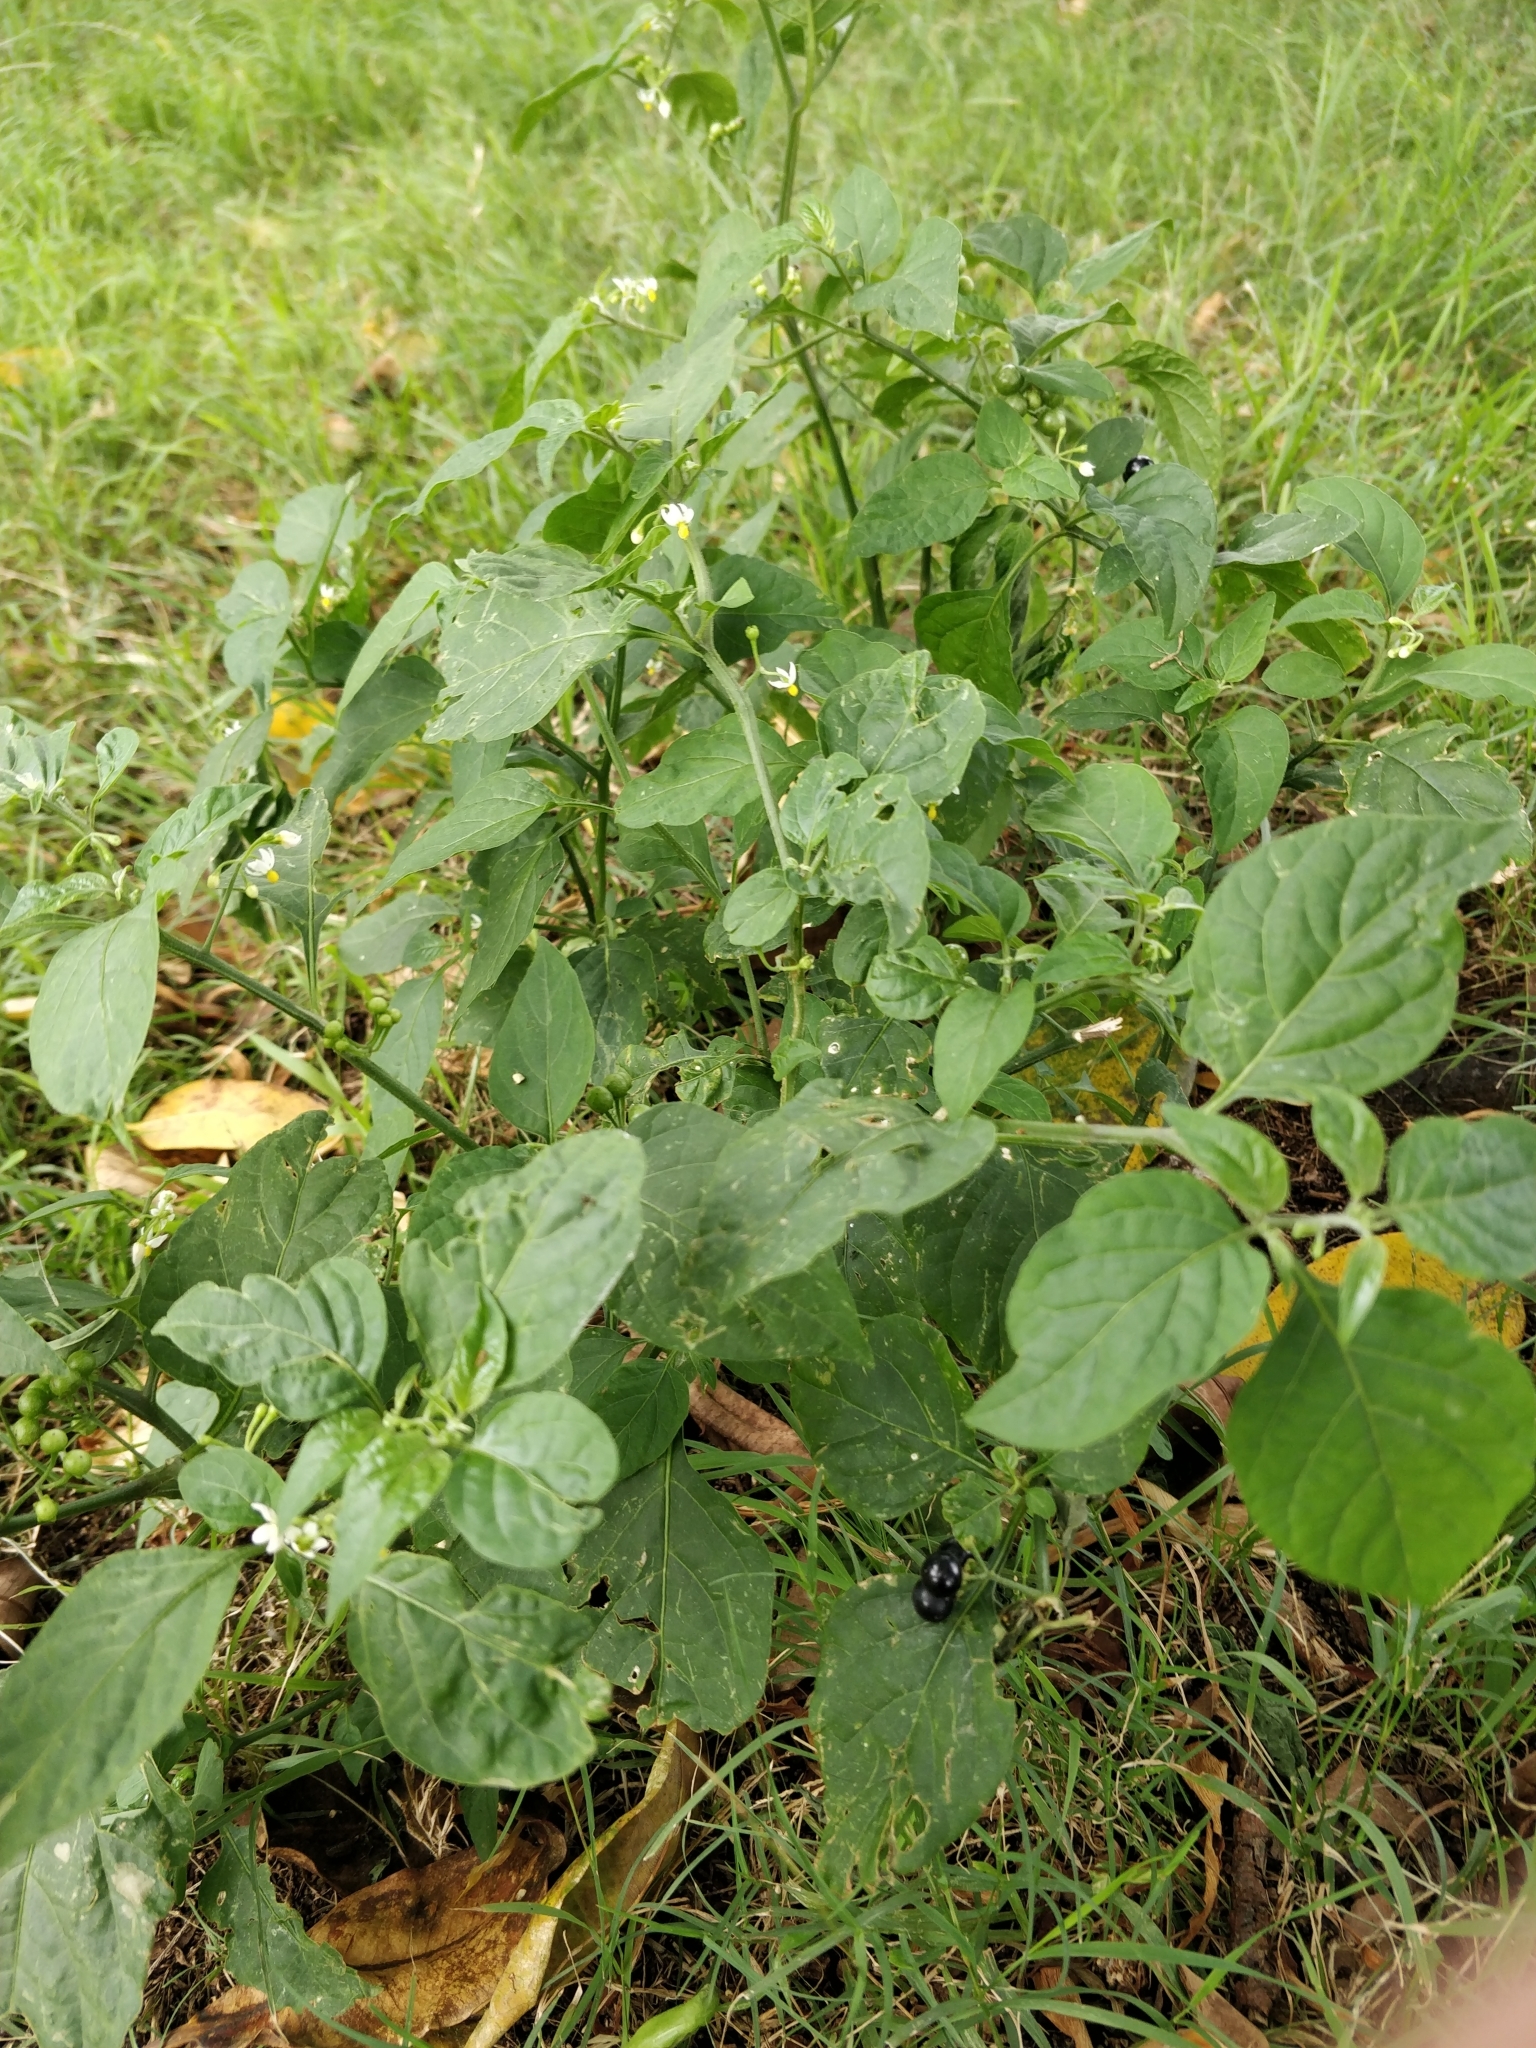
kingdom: Plantae
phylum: Tracheophyta
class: Magnoliopsida
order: Solanales
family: Solanaceae
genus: Solanum
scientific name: Solanum americanum
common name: American black nightshade
